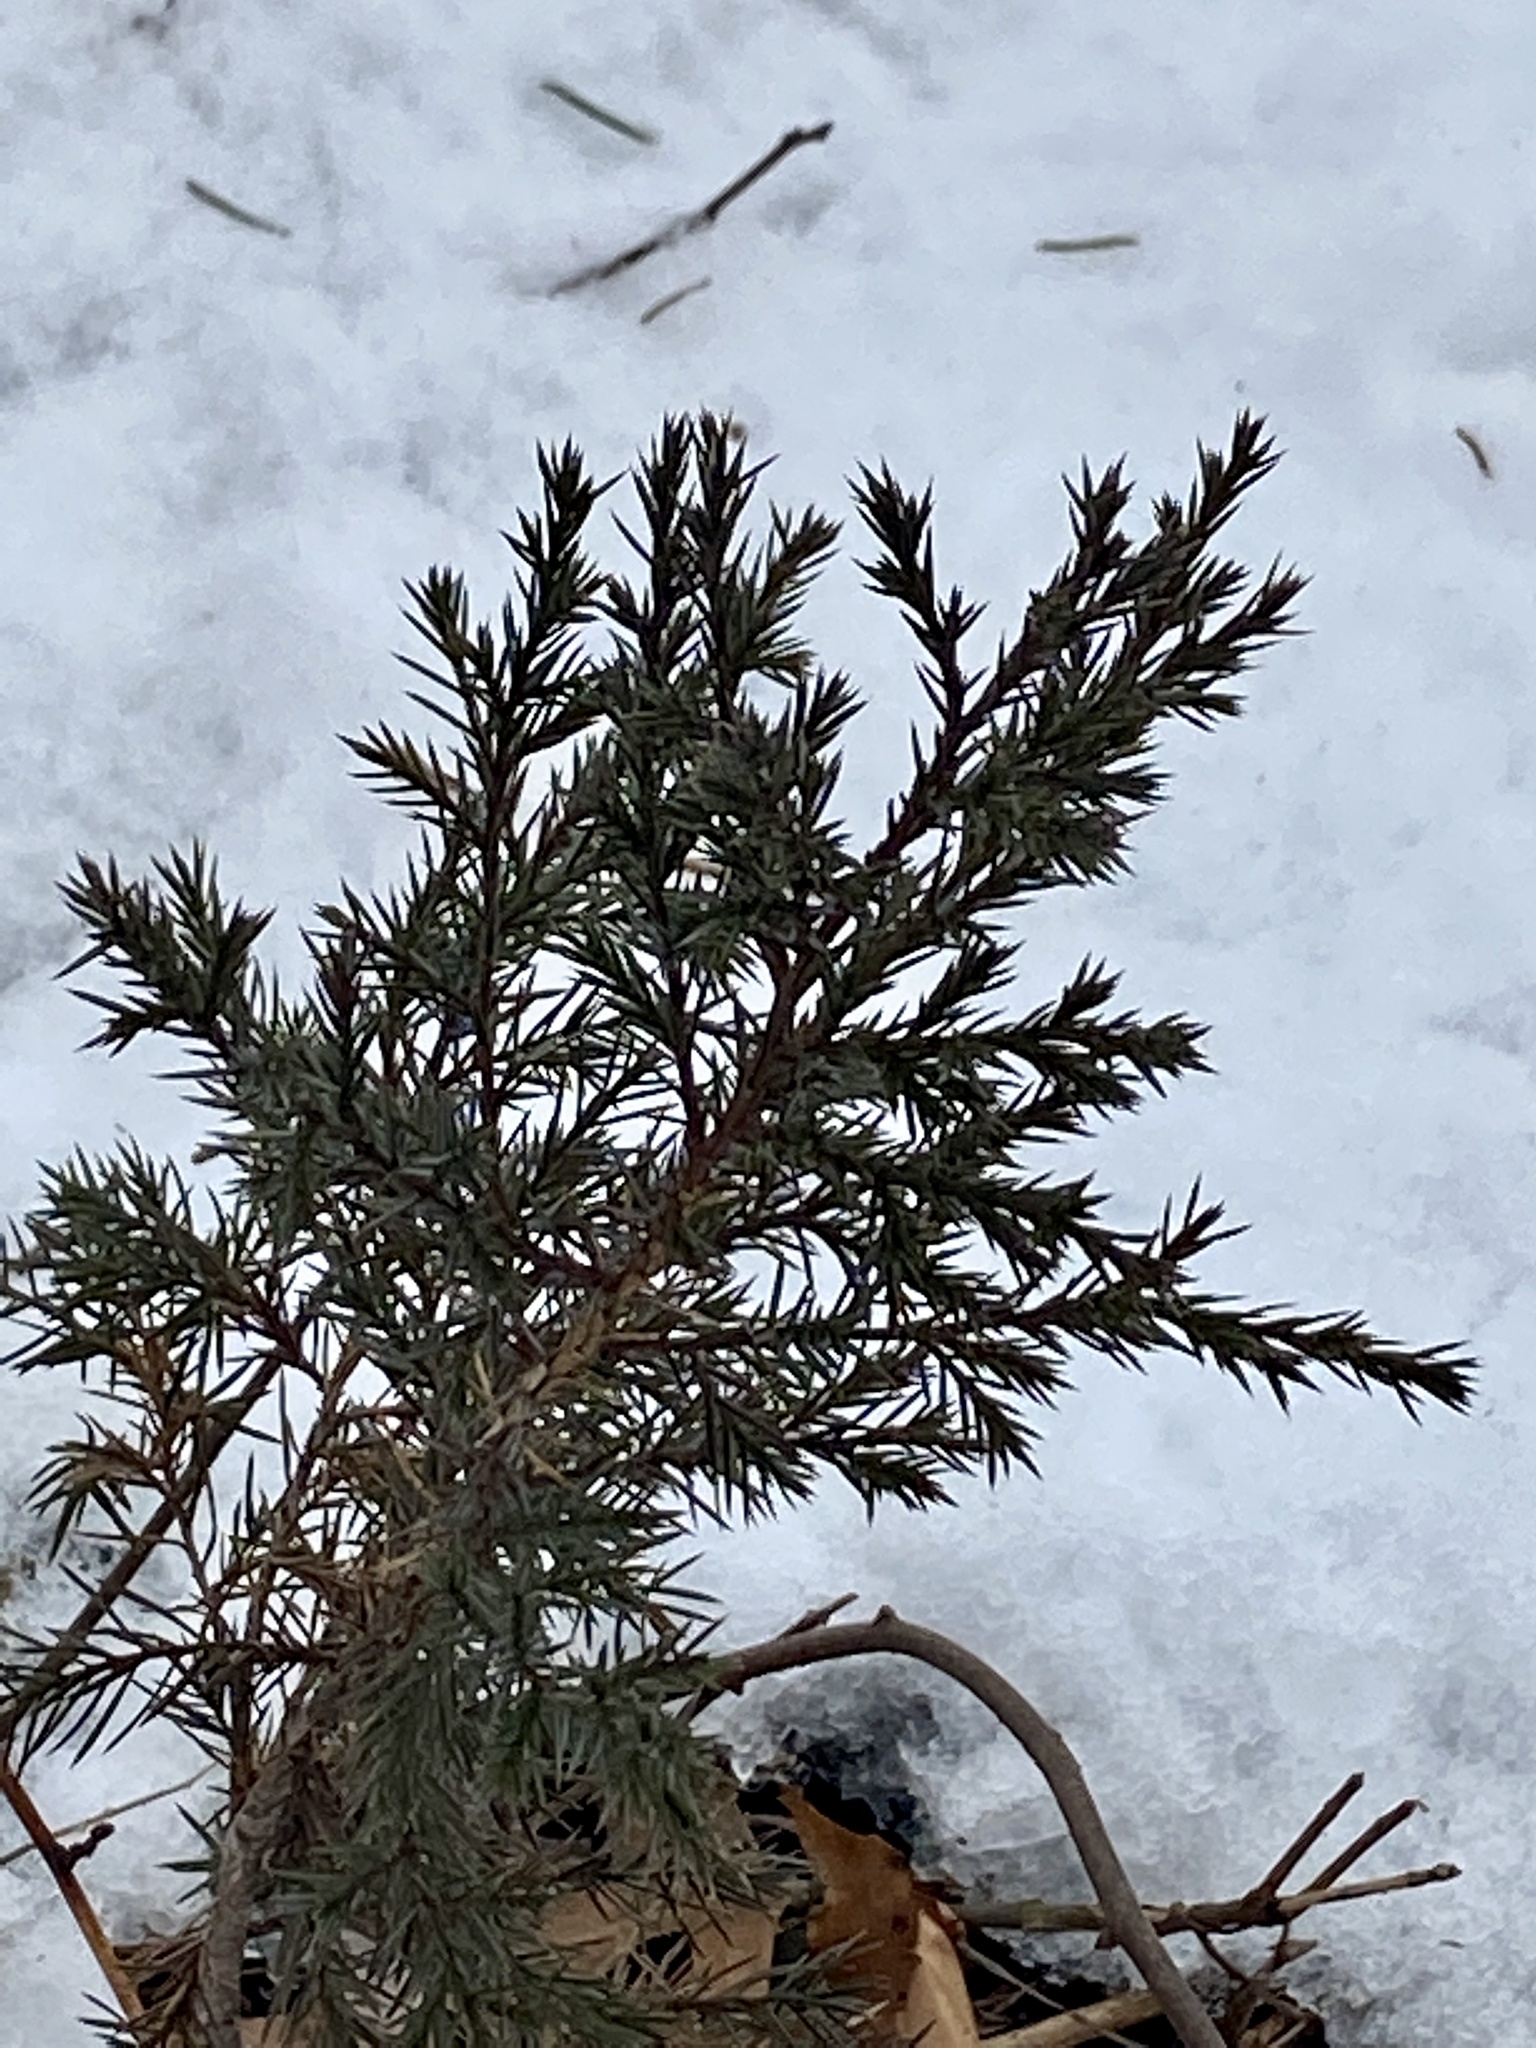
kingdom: Plantae
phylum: Tracheophyta
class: Pinopsida
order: Pinales
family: Cupressaceae
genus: Juniperus
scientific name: Juniperus virginiana
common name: Red juniper
